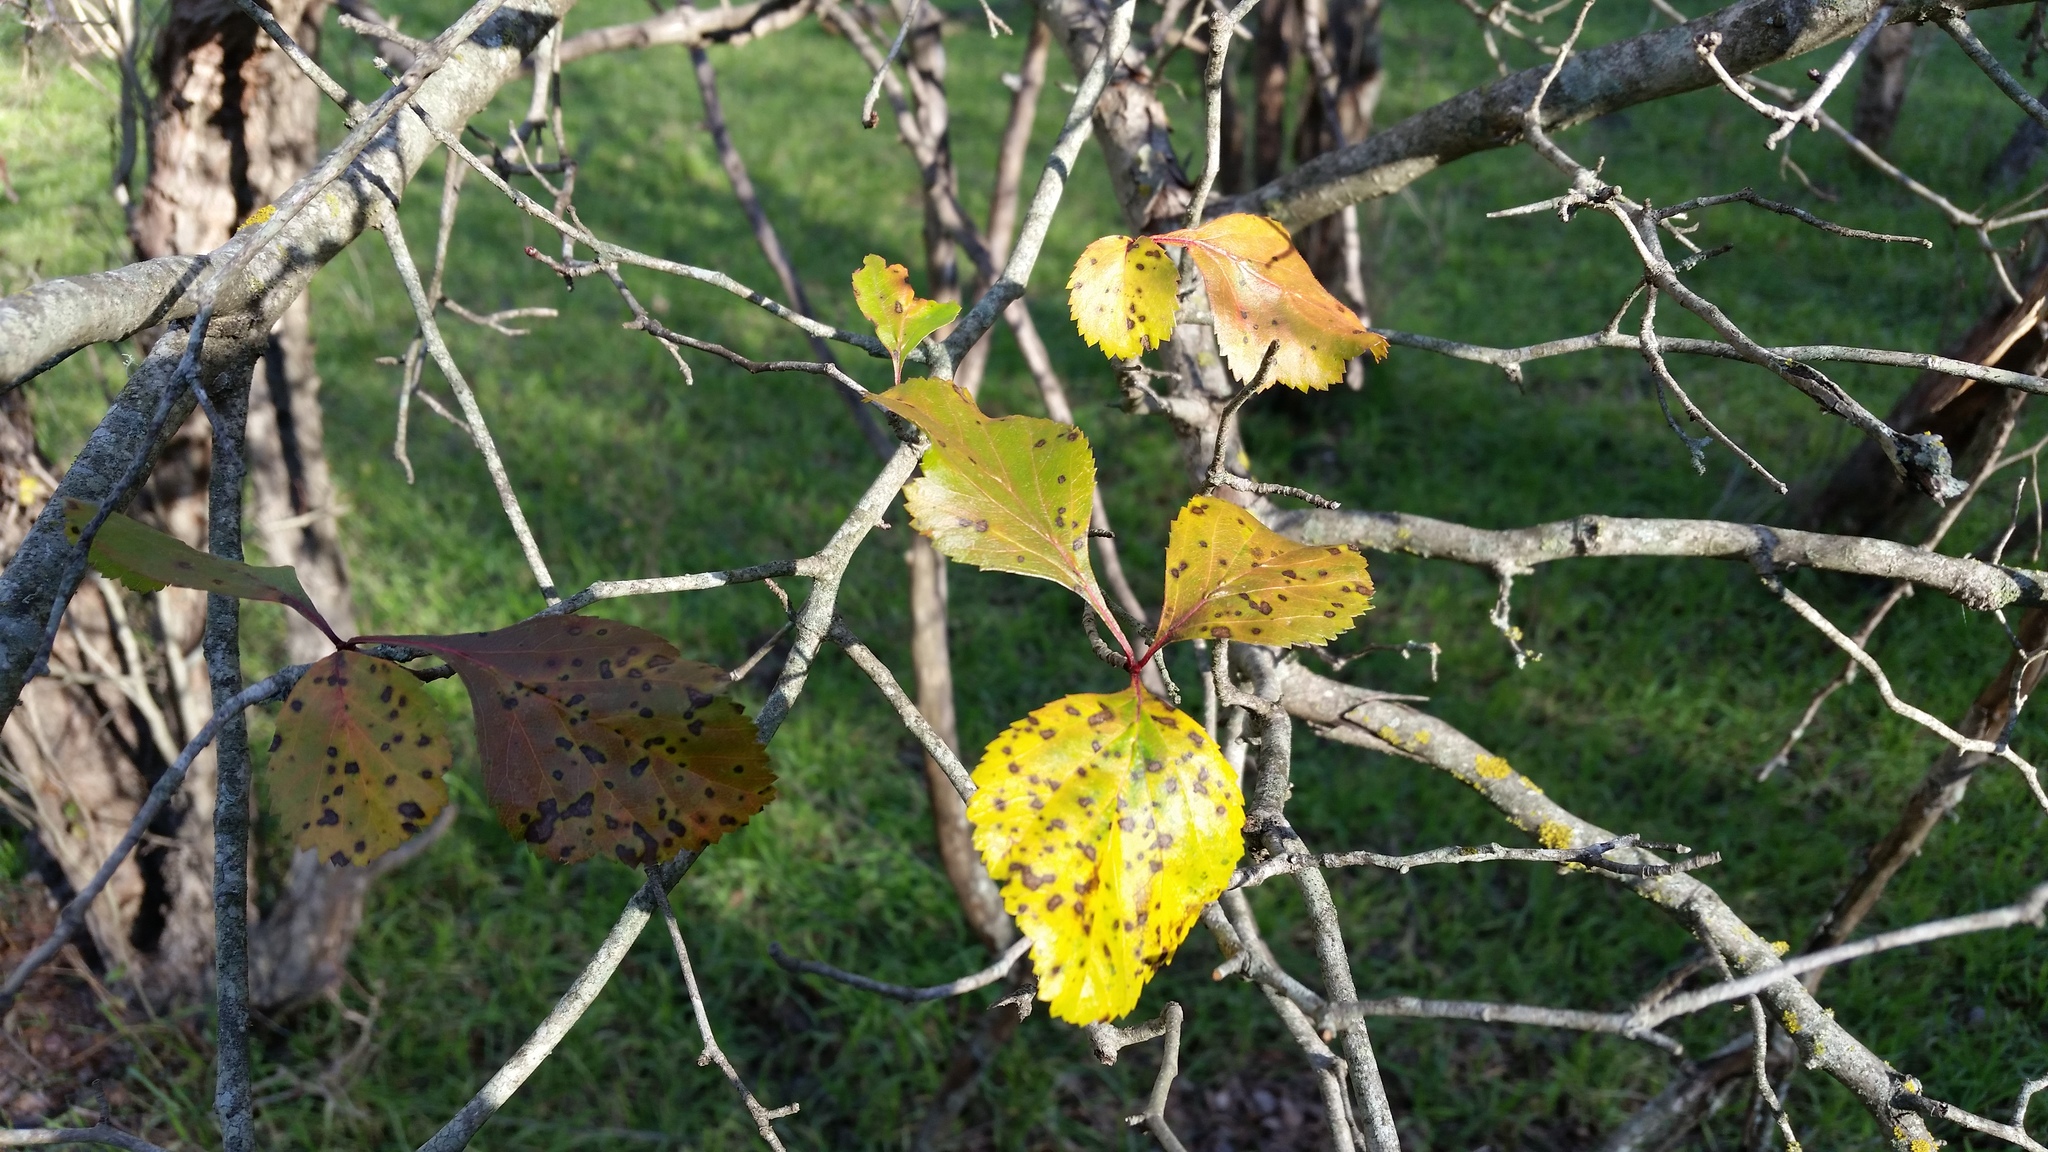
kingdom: Plantae
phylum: Tracheophyta
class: Magnoliopsida
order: Rosales
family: Rosaceae
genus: Crataegus
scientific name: Crataegus viridis
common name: Southernthorn
